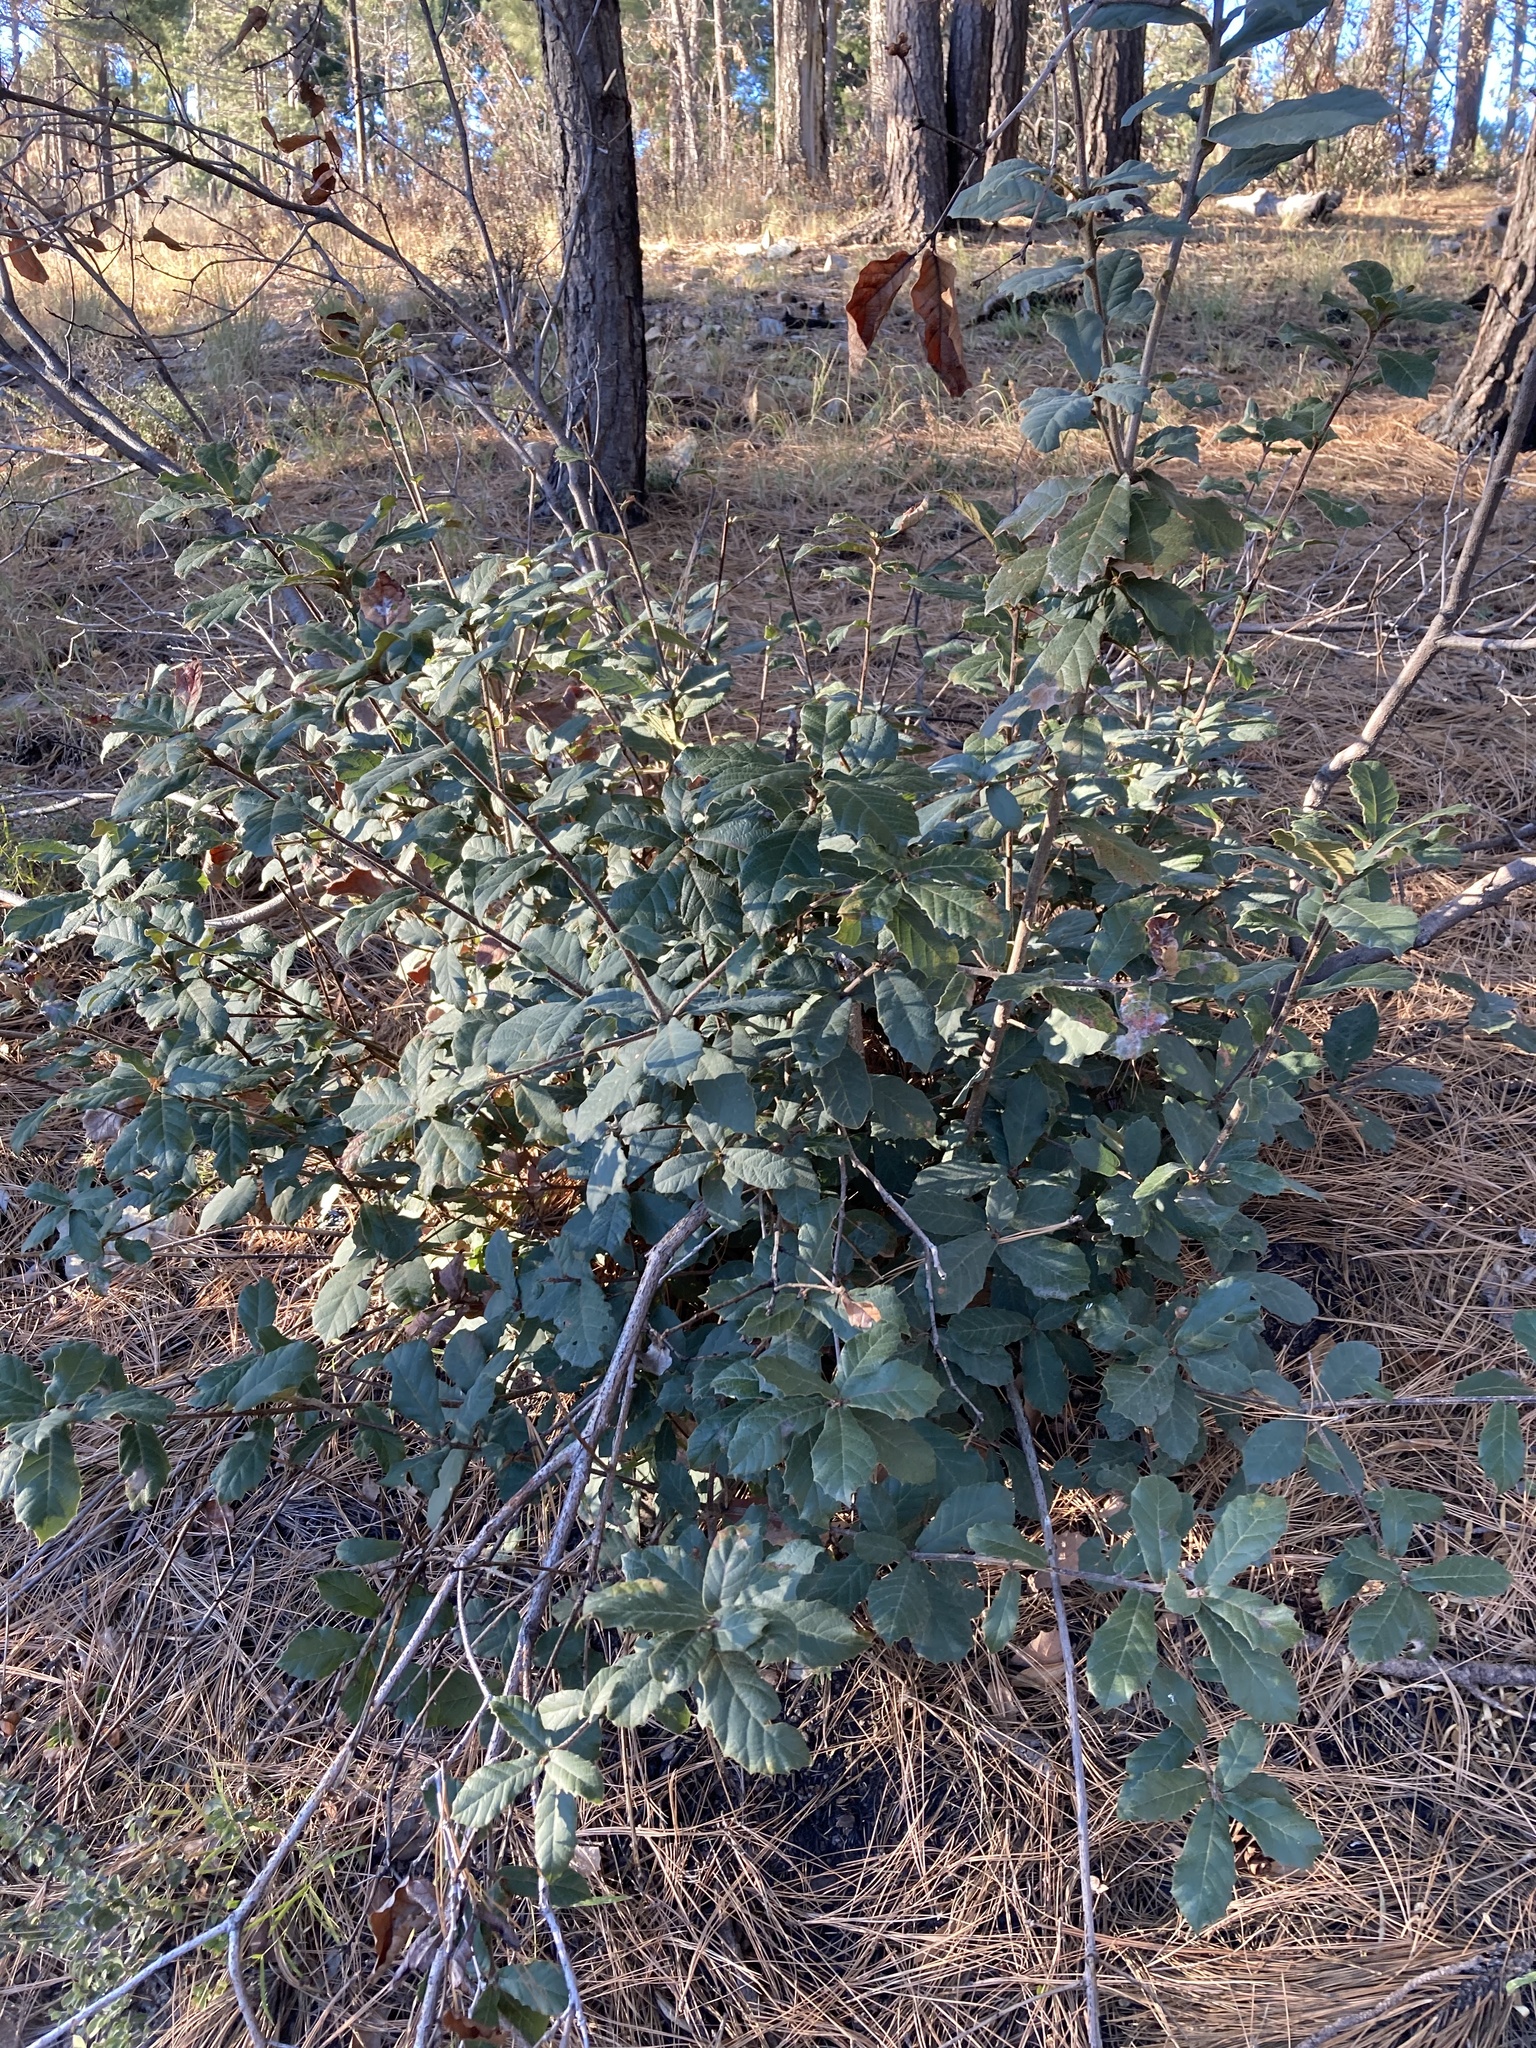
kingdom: Plantae
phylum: Tracheophyta
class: Magnoliopsida
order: Fagales
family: Fagaceae
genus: Quercus
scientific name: Quercus rugosa
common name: Netleaf oak
